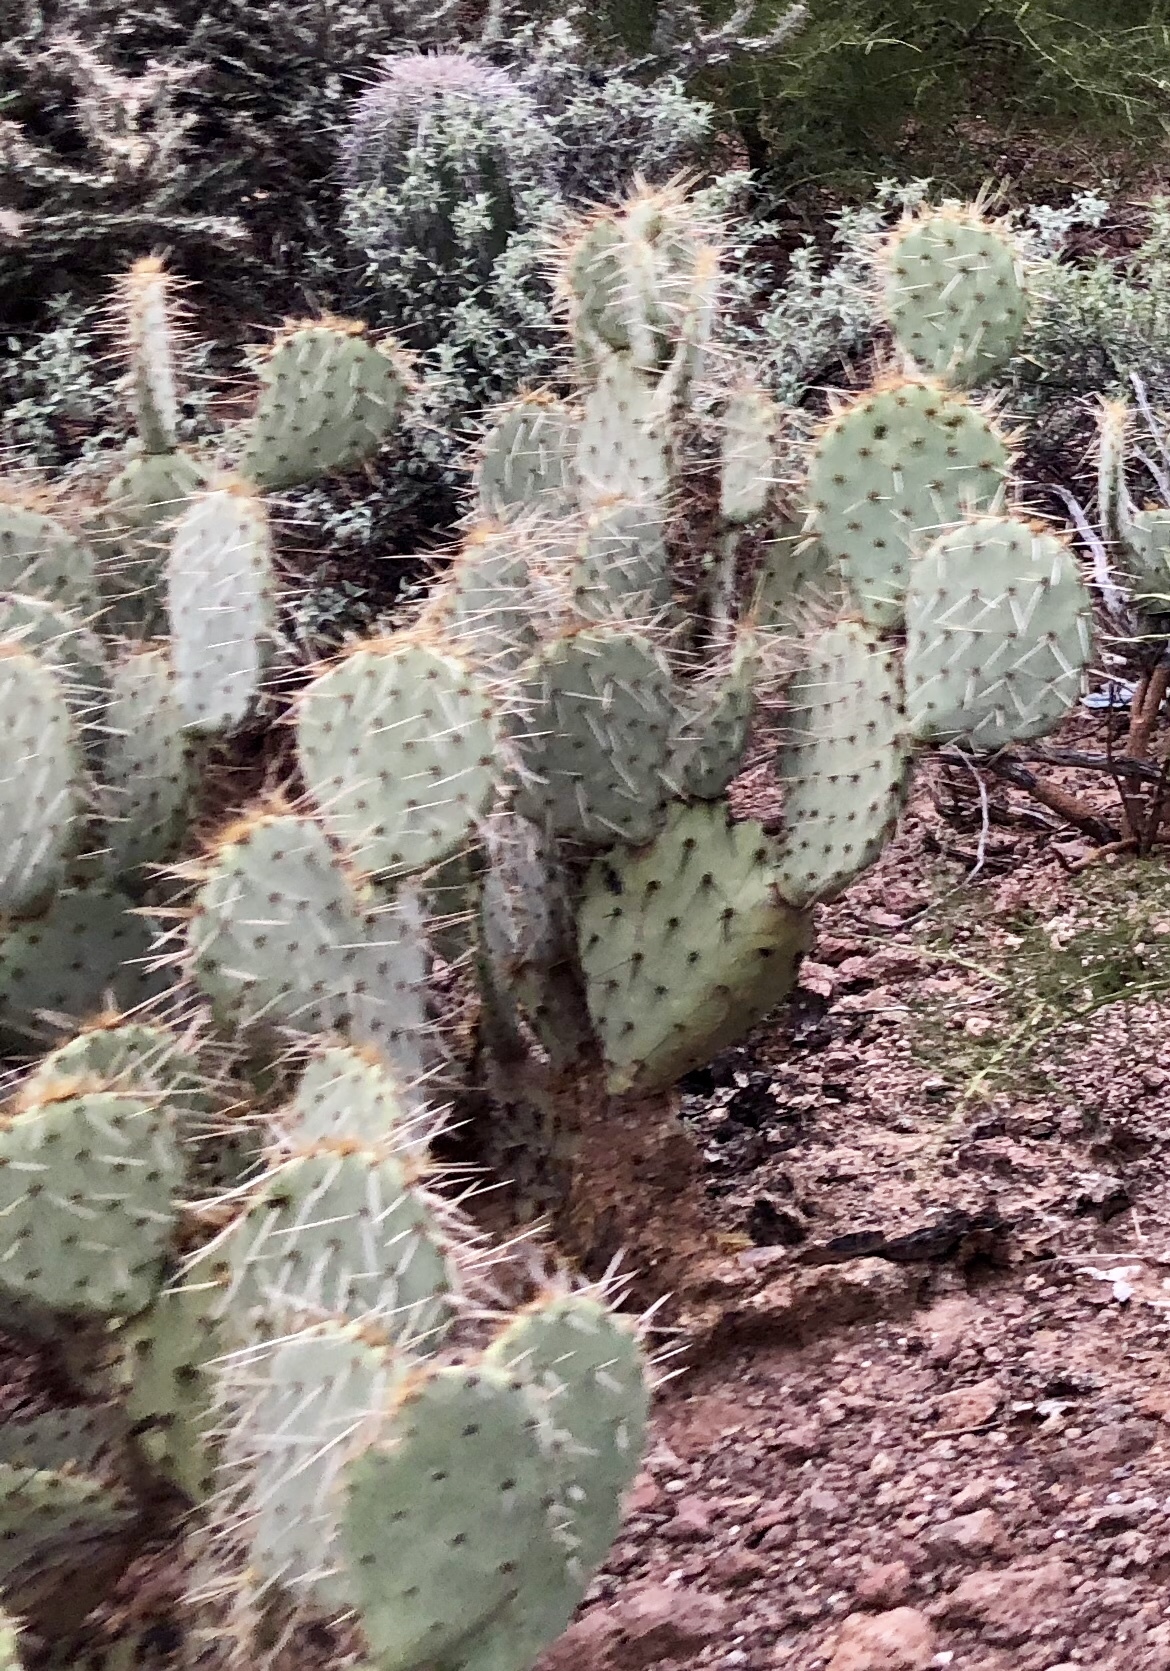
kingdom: Plantae
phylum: Tracheophyta
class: Magnoliopsida
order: Caryophyllales
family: Cactaceae
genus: Opuntia
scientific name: Opuntia engelmannii
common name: Cactus-apple
